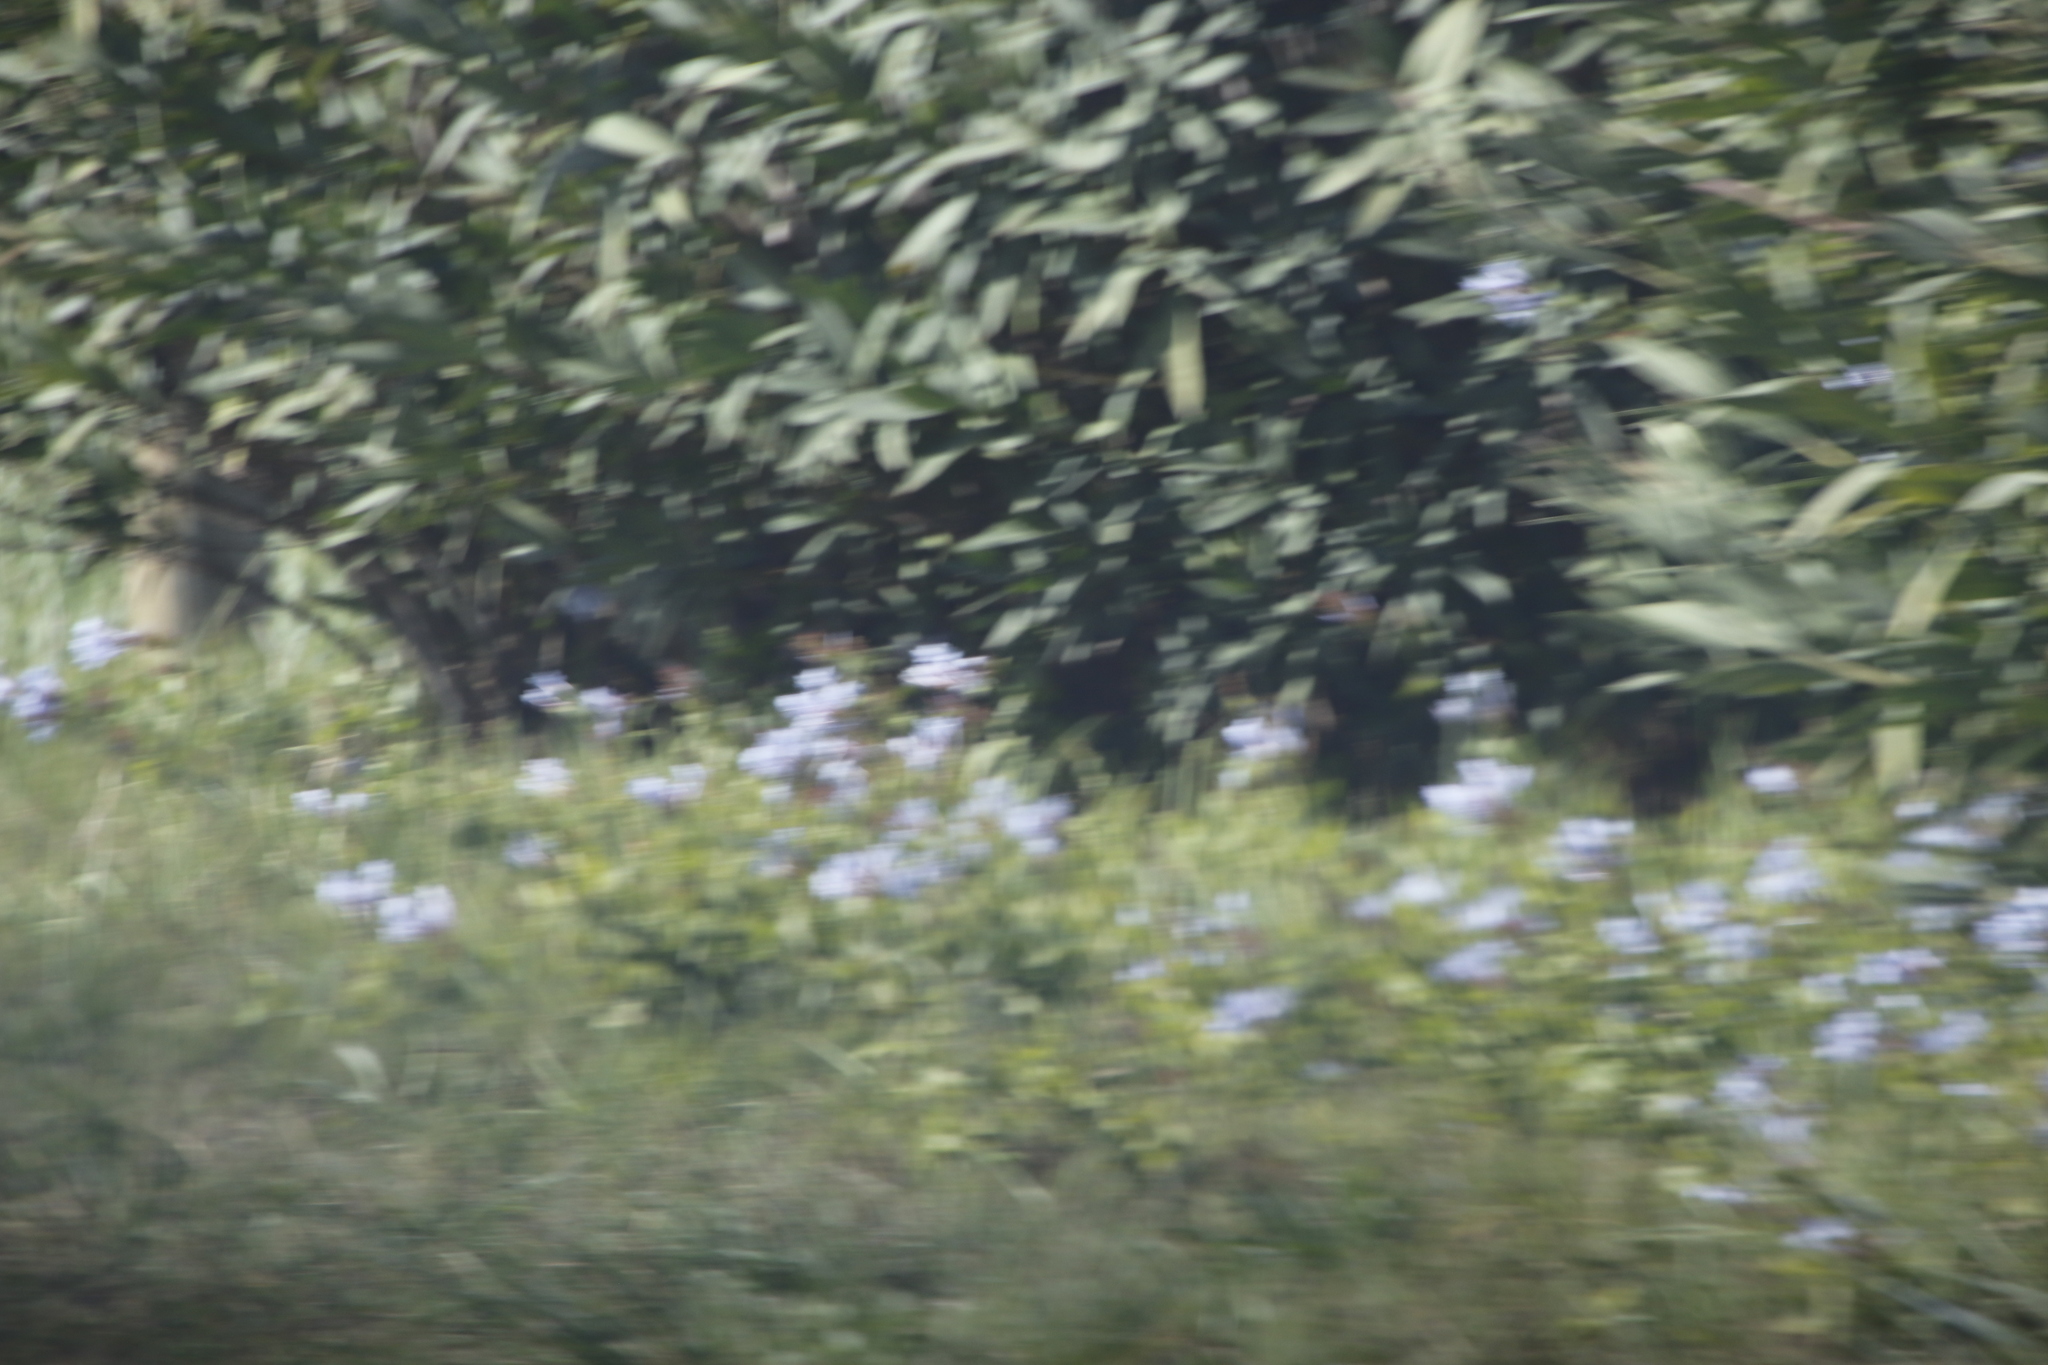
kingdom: Plantae
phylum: Tracheophyta
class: Magnoliopsida
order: Caryophyllales
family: Plumbaginaceae
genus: Plumbago
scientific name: Plumbago auriculata
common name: Cape leadwort
